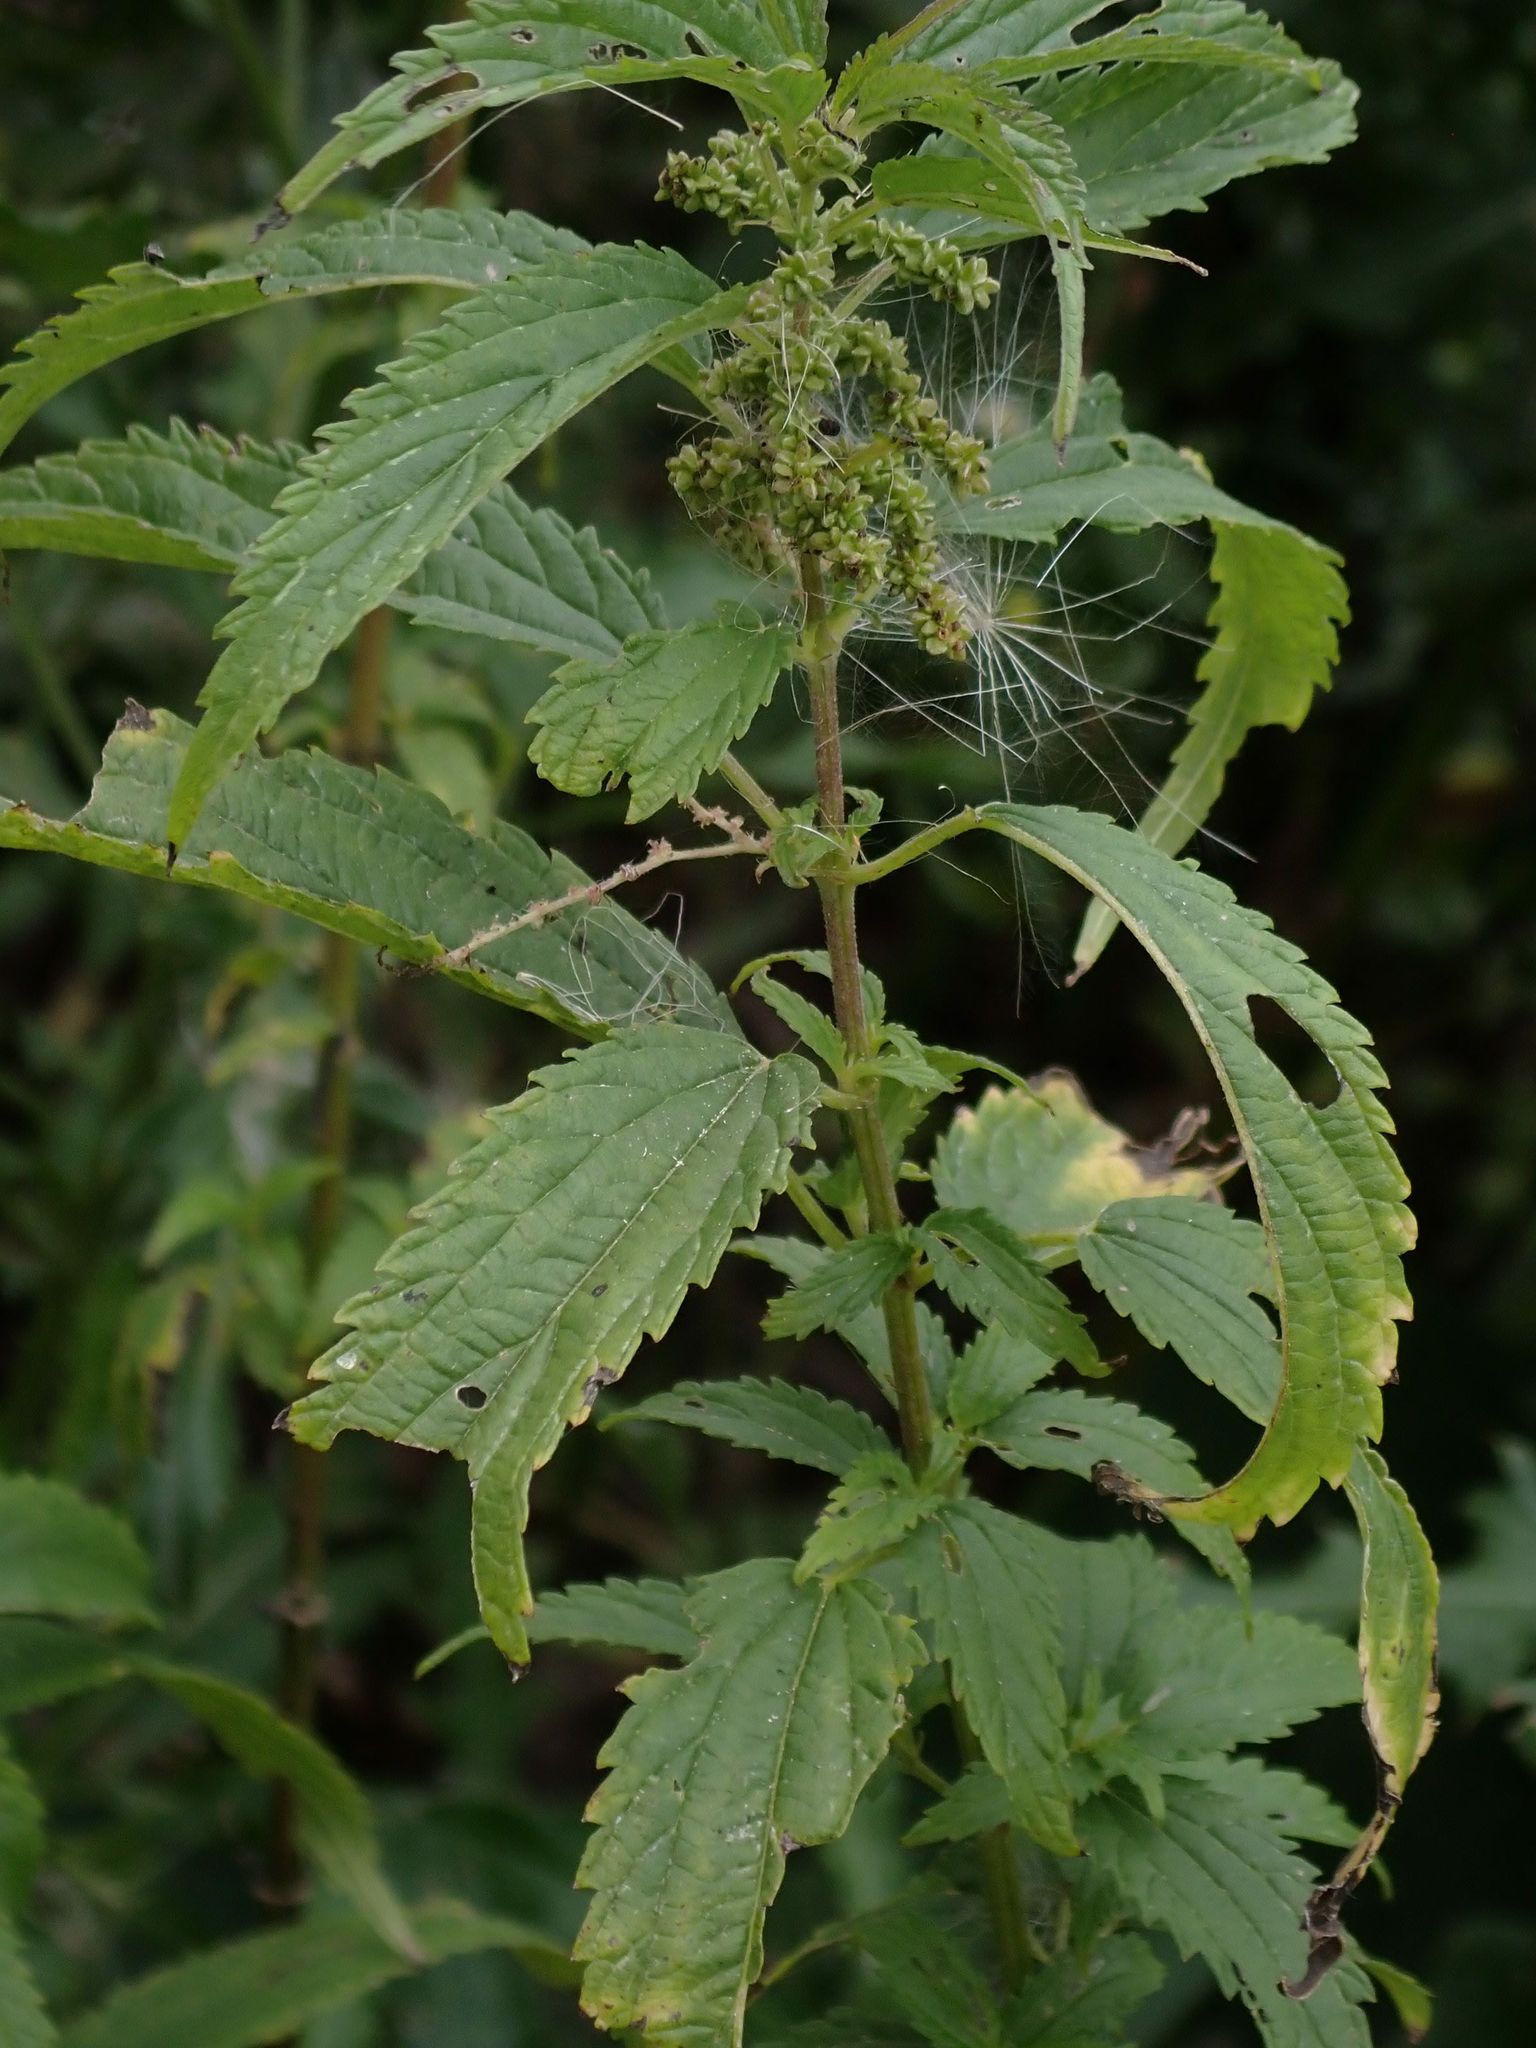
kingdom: Plantae
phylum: Tracheophyta
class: Magnoliopsida
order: Rosales
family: Urticaceae
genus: Urtica
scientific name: Urtica gracilis
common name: Slender stinging nettle
